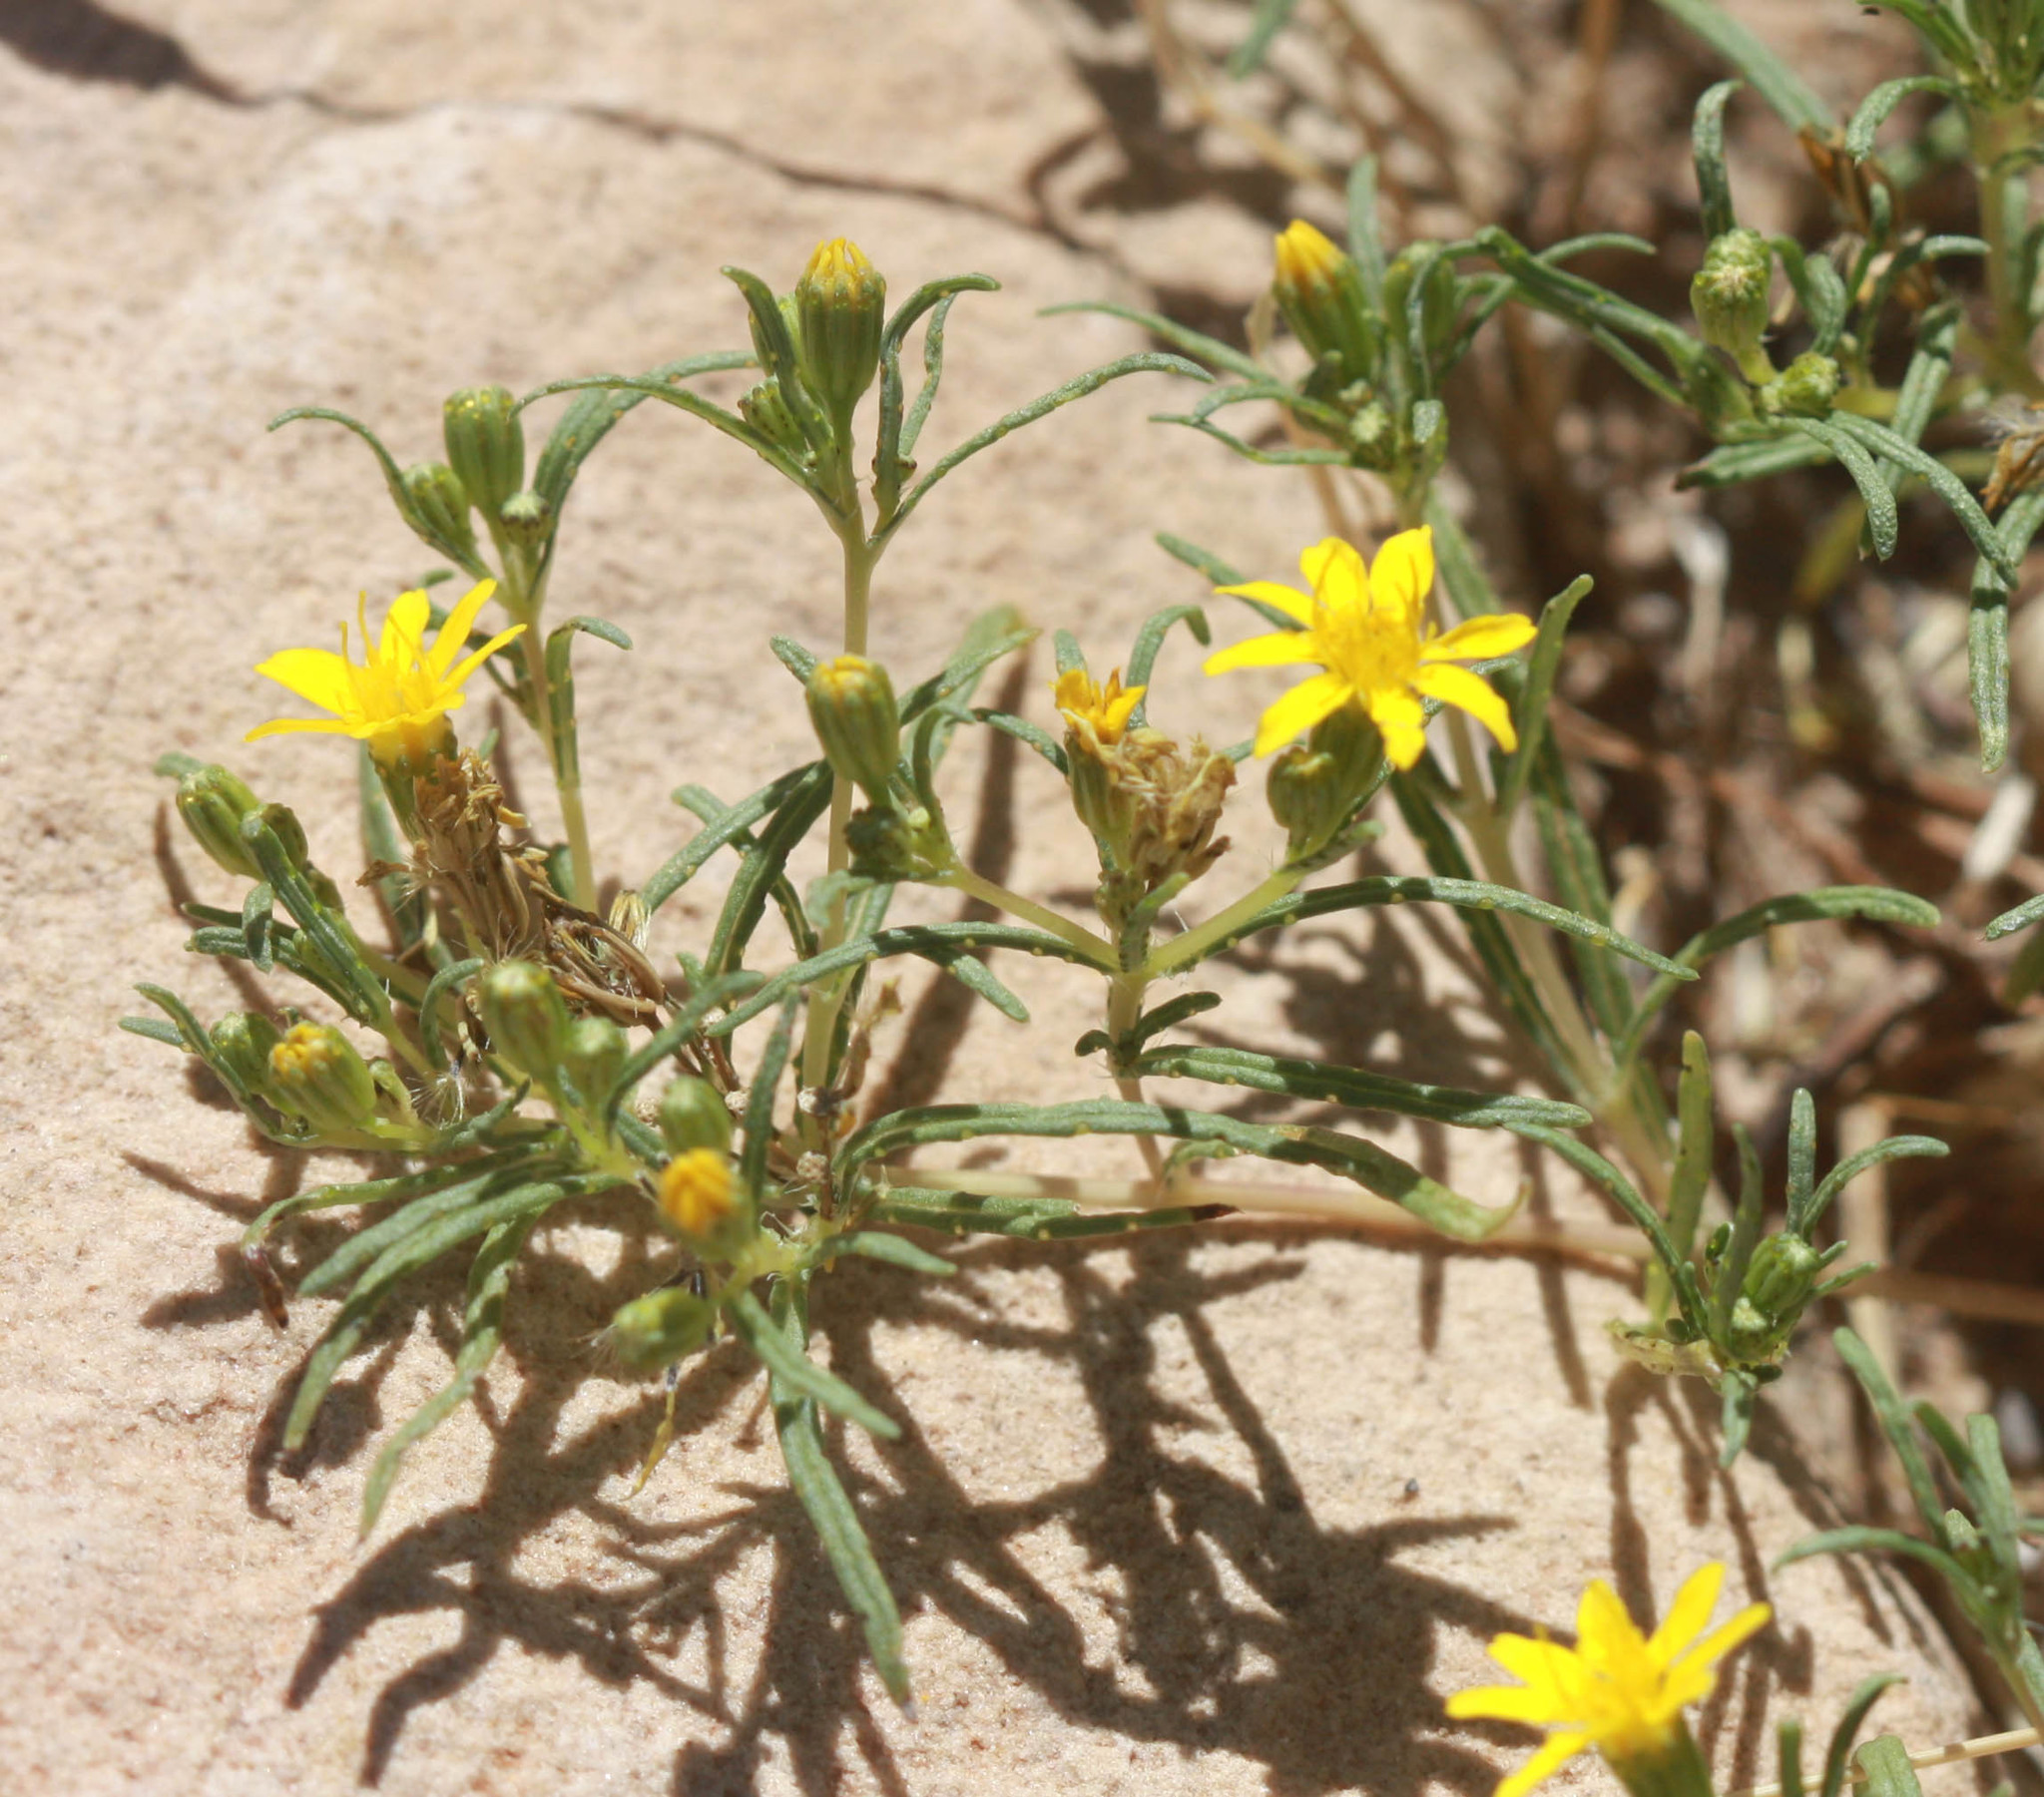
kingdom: Plantae
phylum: Tracheophyta
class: Magnoliopsida
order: Asterales
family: Asteraceae
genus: Pectis
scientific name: Pectis papposa
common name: Many-bristle chinchweed
